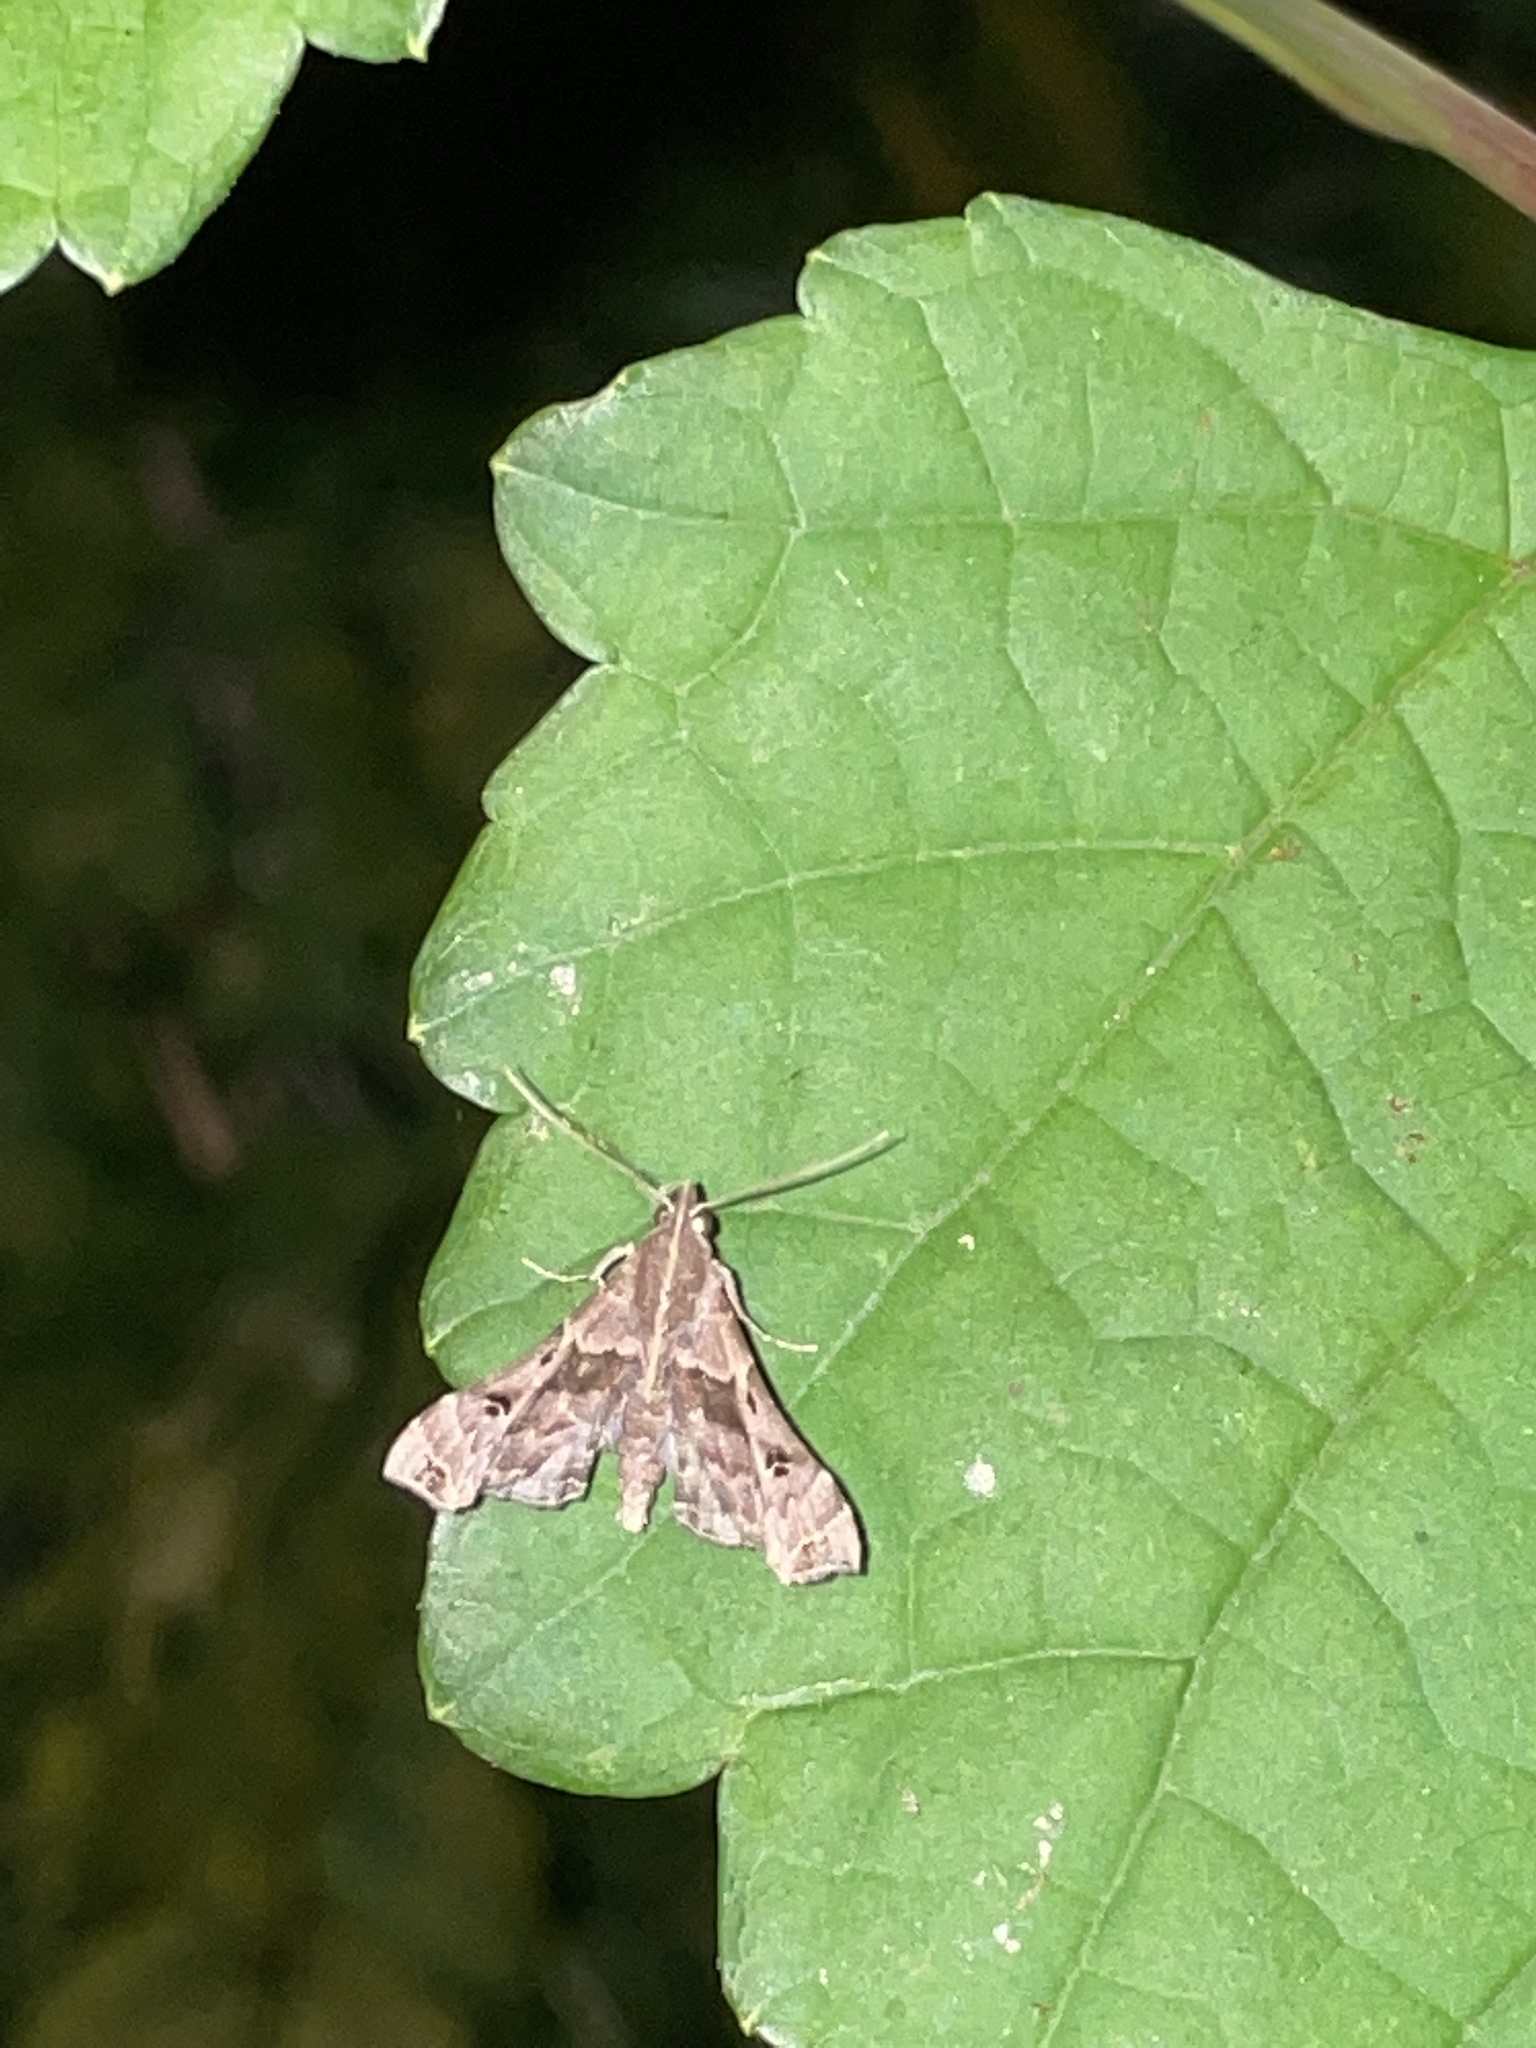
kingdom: Animalia
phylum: Arthropoda
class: Insecta
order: Lepidoptera
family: Erebidae
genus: Palthis
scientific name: Palthis asopialis
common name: Faint-spotted palthis moth
